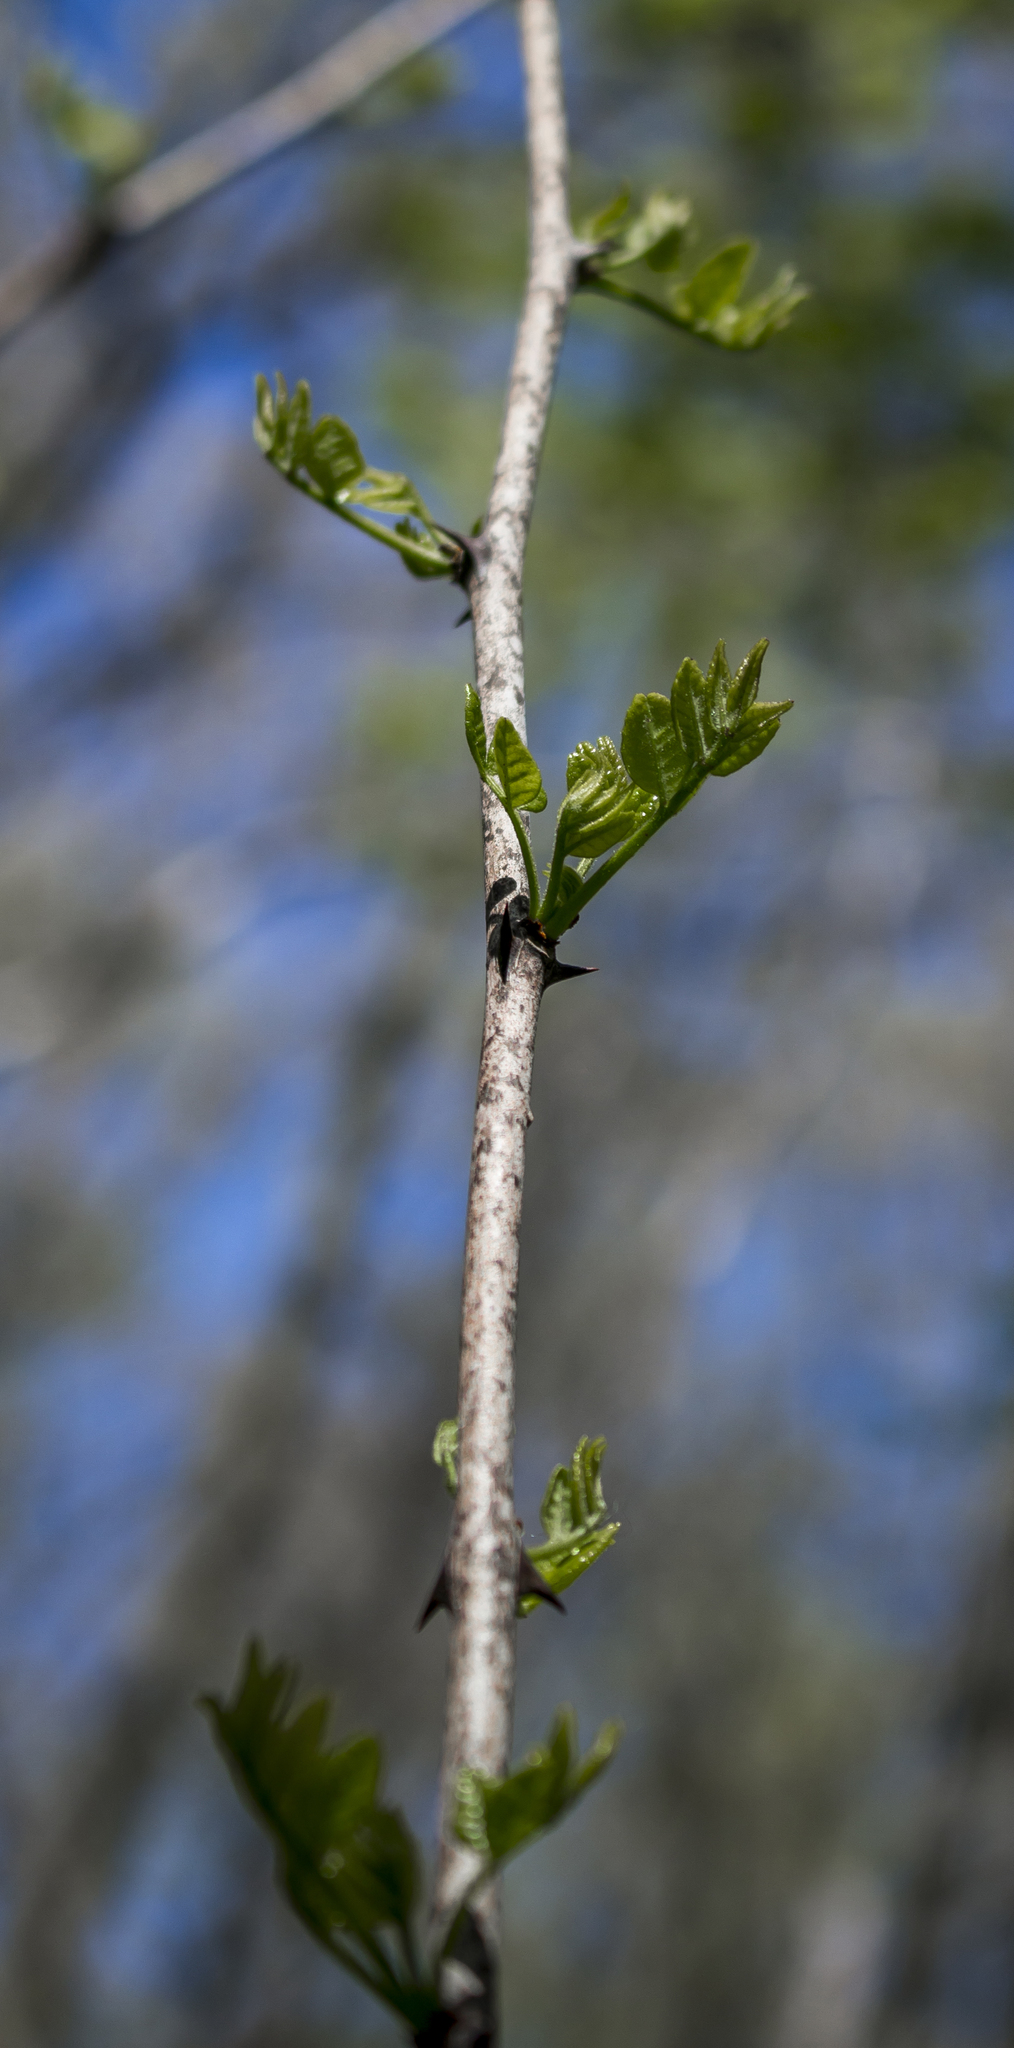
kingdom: Plantae
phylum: Tracheophyta
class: Magnoliopsida
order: Sapindales
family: Rutaceae
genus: Zanthoxylum
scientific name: Zanthoxylum americanum
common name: Northern prickly-ash
